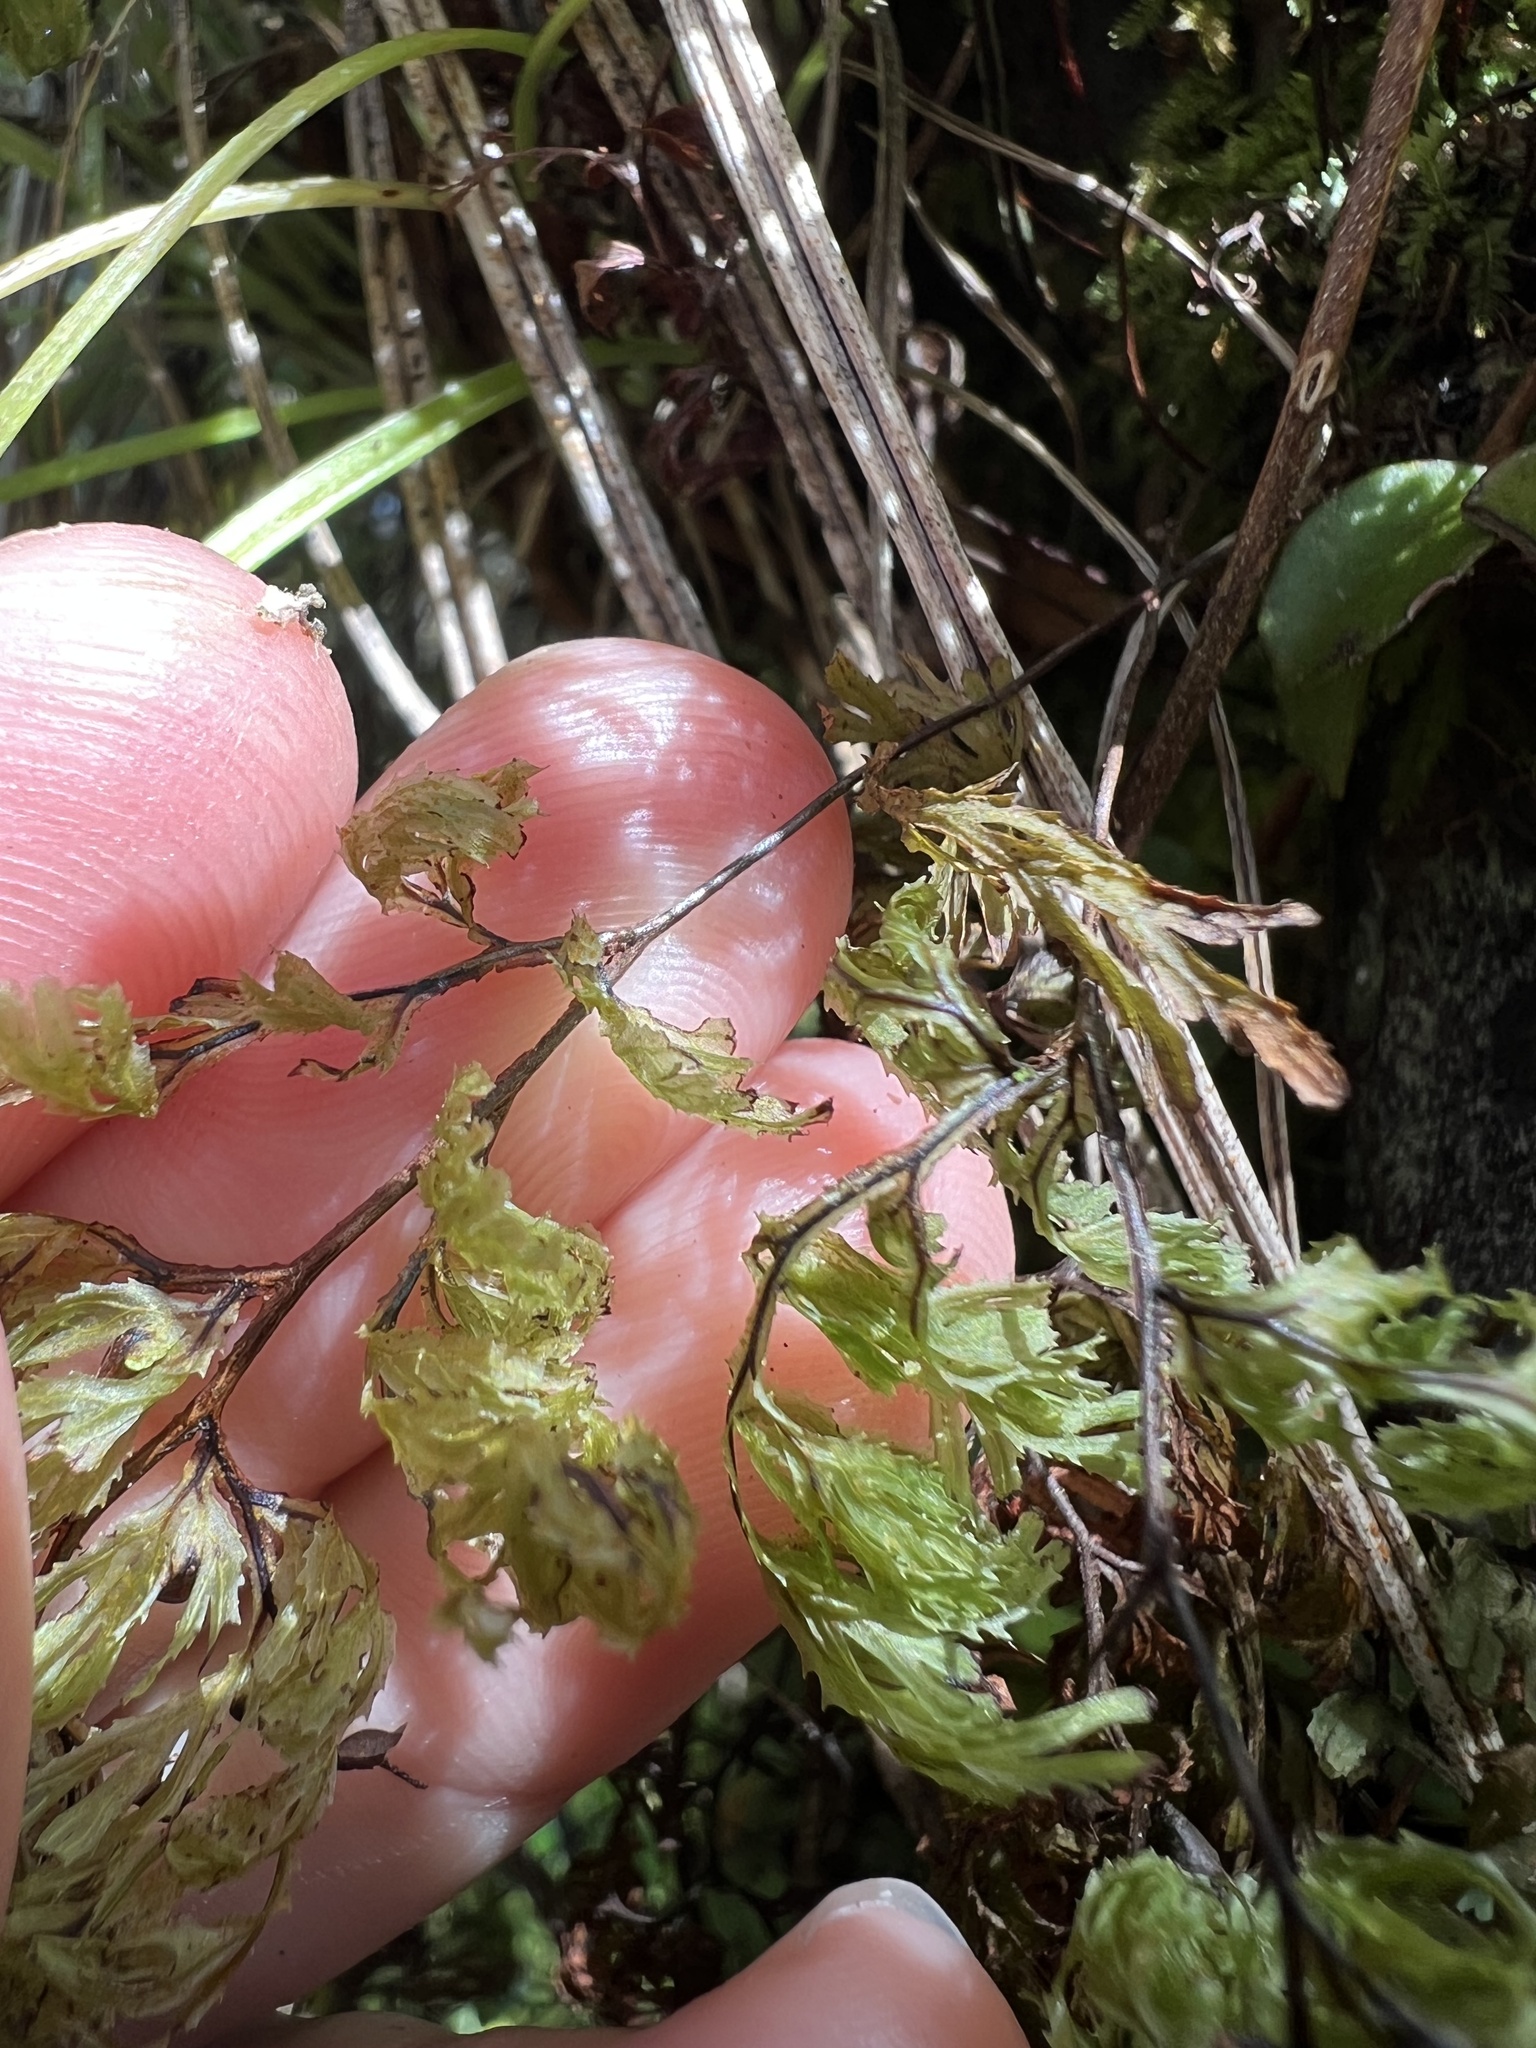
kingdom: Plantae
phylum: Tracheophyta
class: Polypodiopsida
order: Hymenophyllales
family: Hymenophyllaceae
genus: Hymenophyllum
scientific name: Hymenophyllum multifidum
